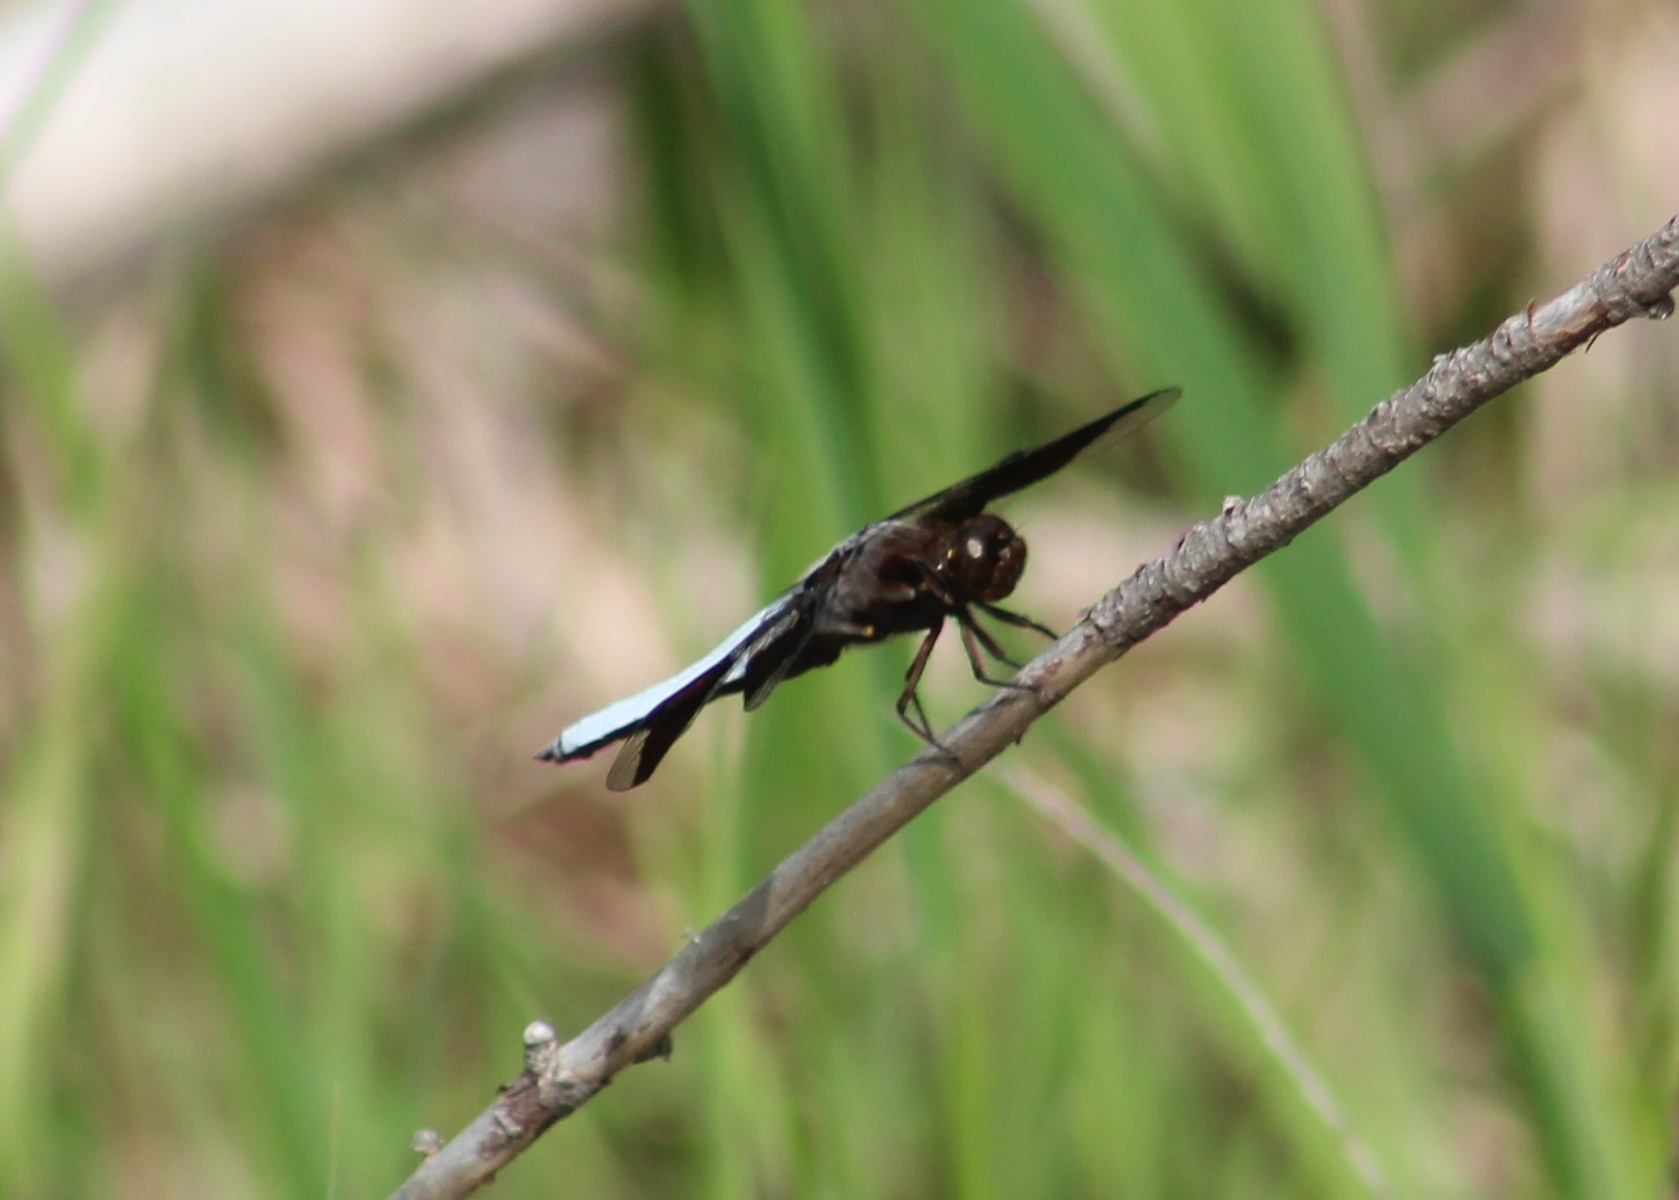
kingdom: Animalia
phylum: Arthropoda
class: Insecta
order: Odonata
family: Libellulidae
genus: Plathemis
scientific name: Plathemis lydia
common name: Common whitetail
